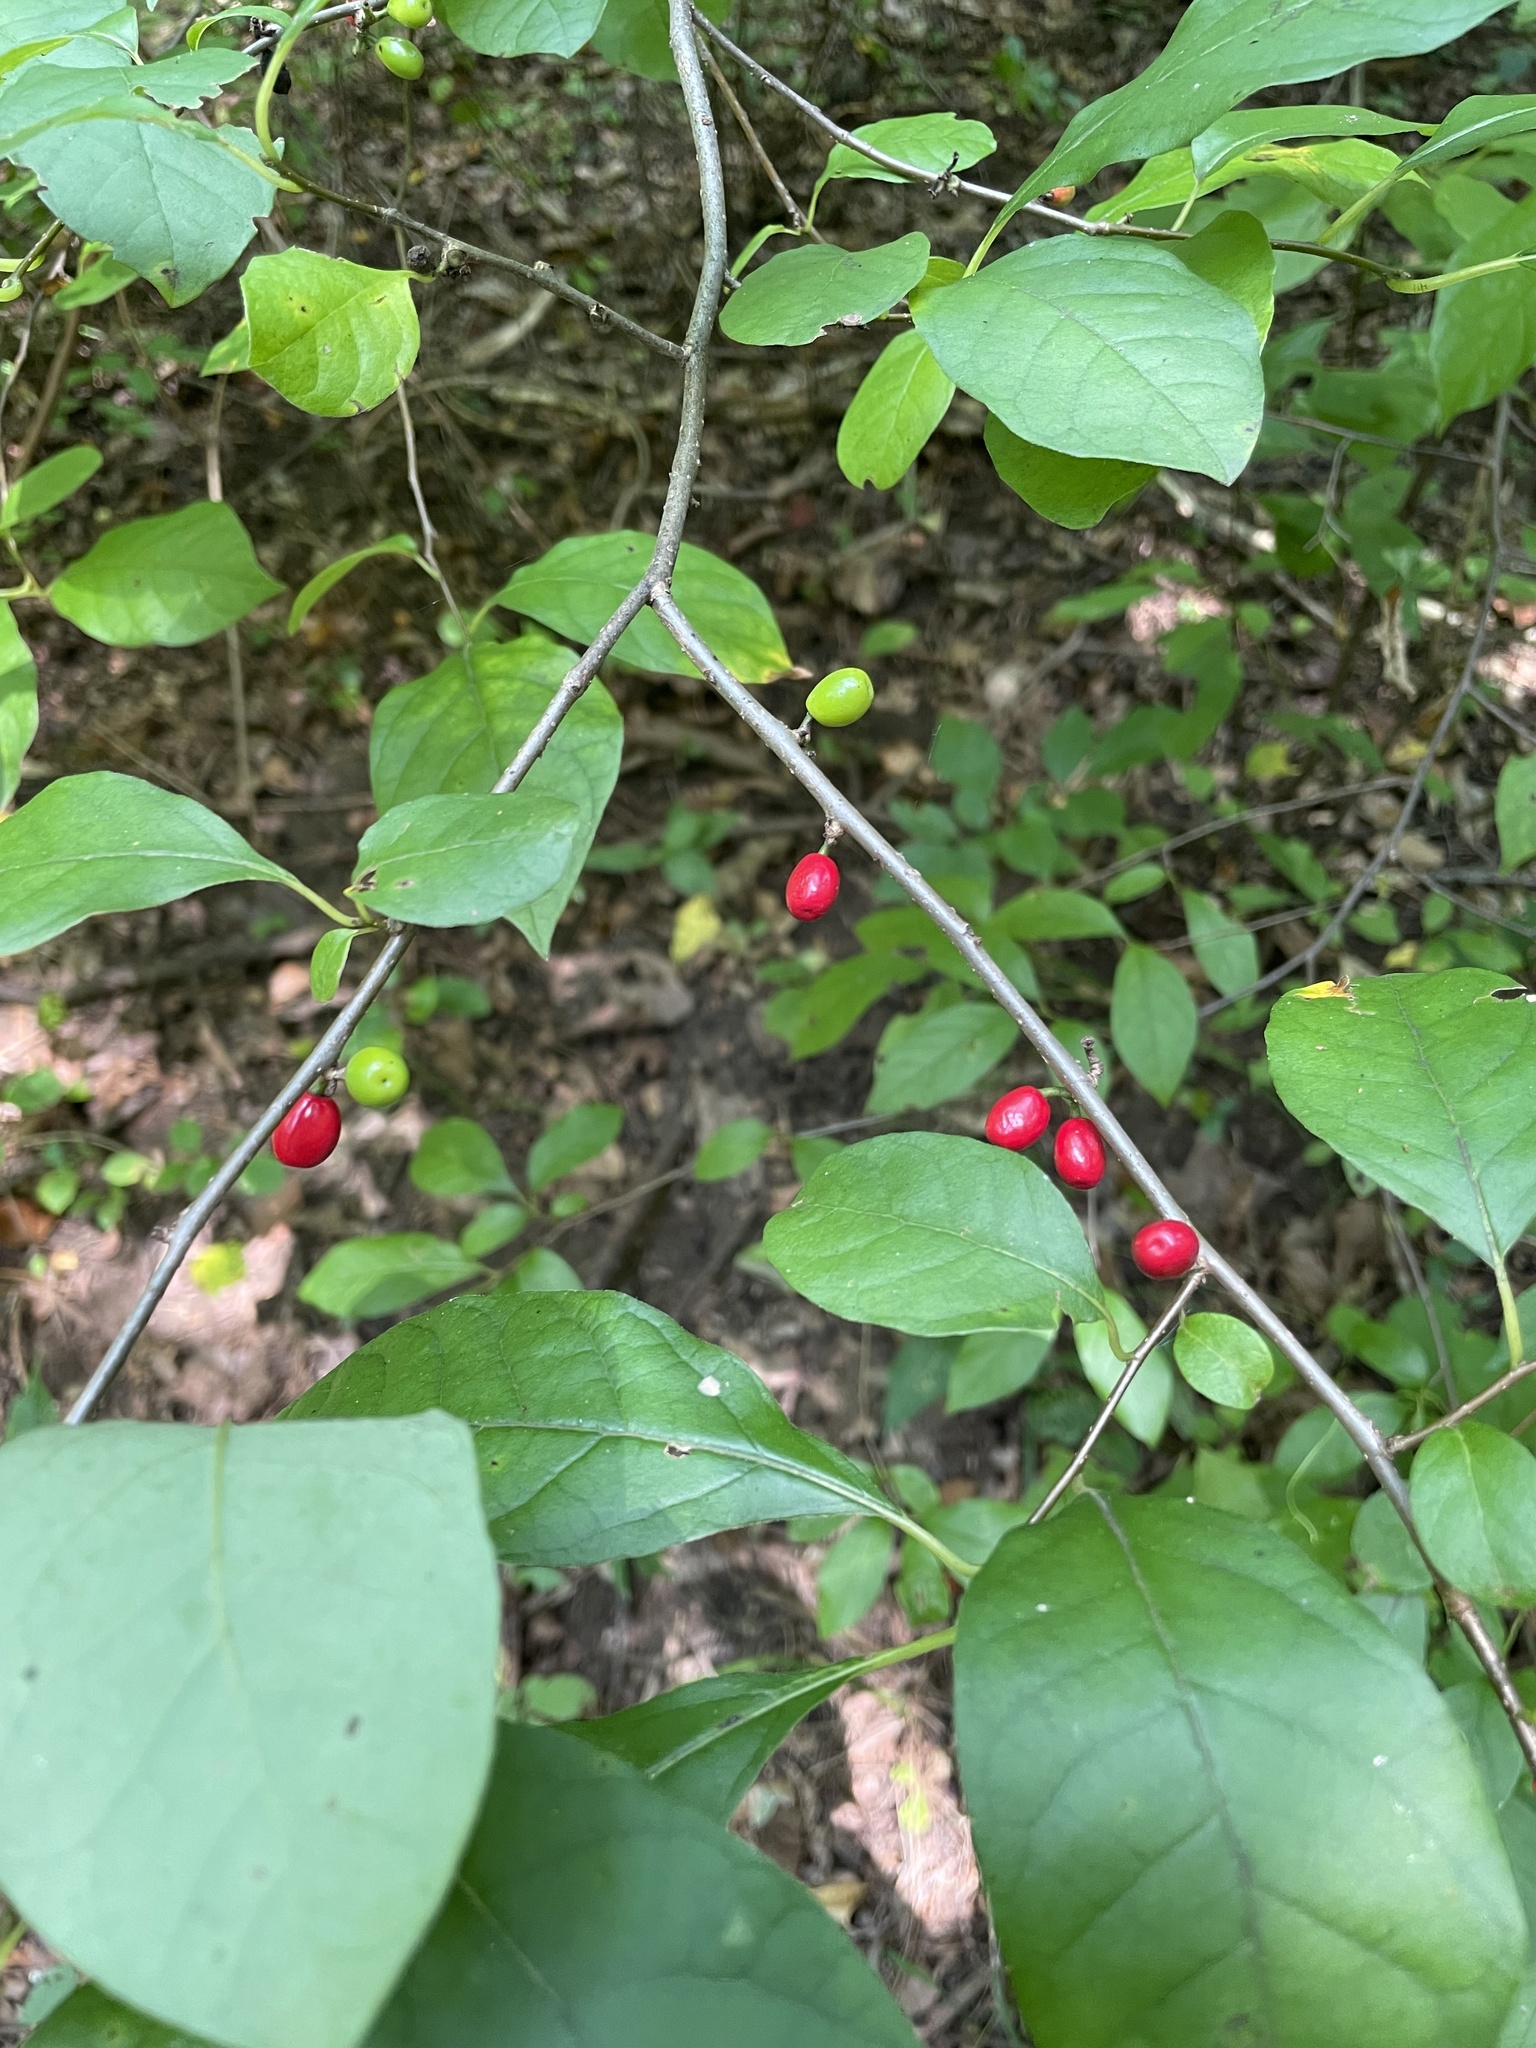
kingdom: Plantae
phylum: Tracheophyta
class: Magnoliopsida
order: Laurales
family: Lauraceae
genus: Lindera
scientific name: Lindera benzoin
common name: Spicebush
